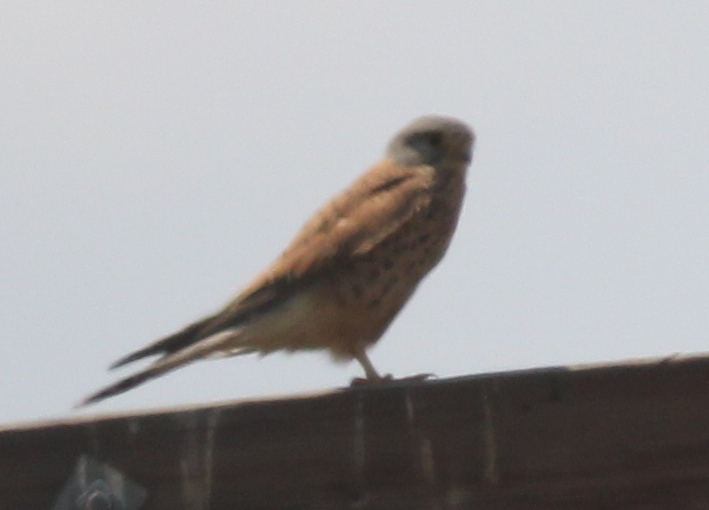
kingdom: Animalia
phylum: Chordata
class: Aves
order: Falconiformes
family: Falconidae
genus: Falco
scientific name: Falco tinnunculus
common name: Common kestrel
